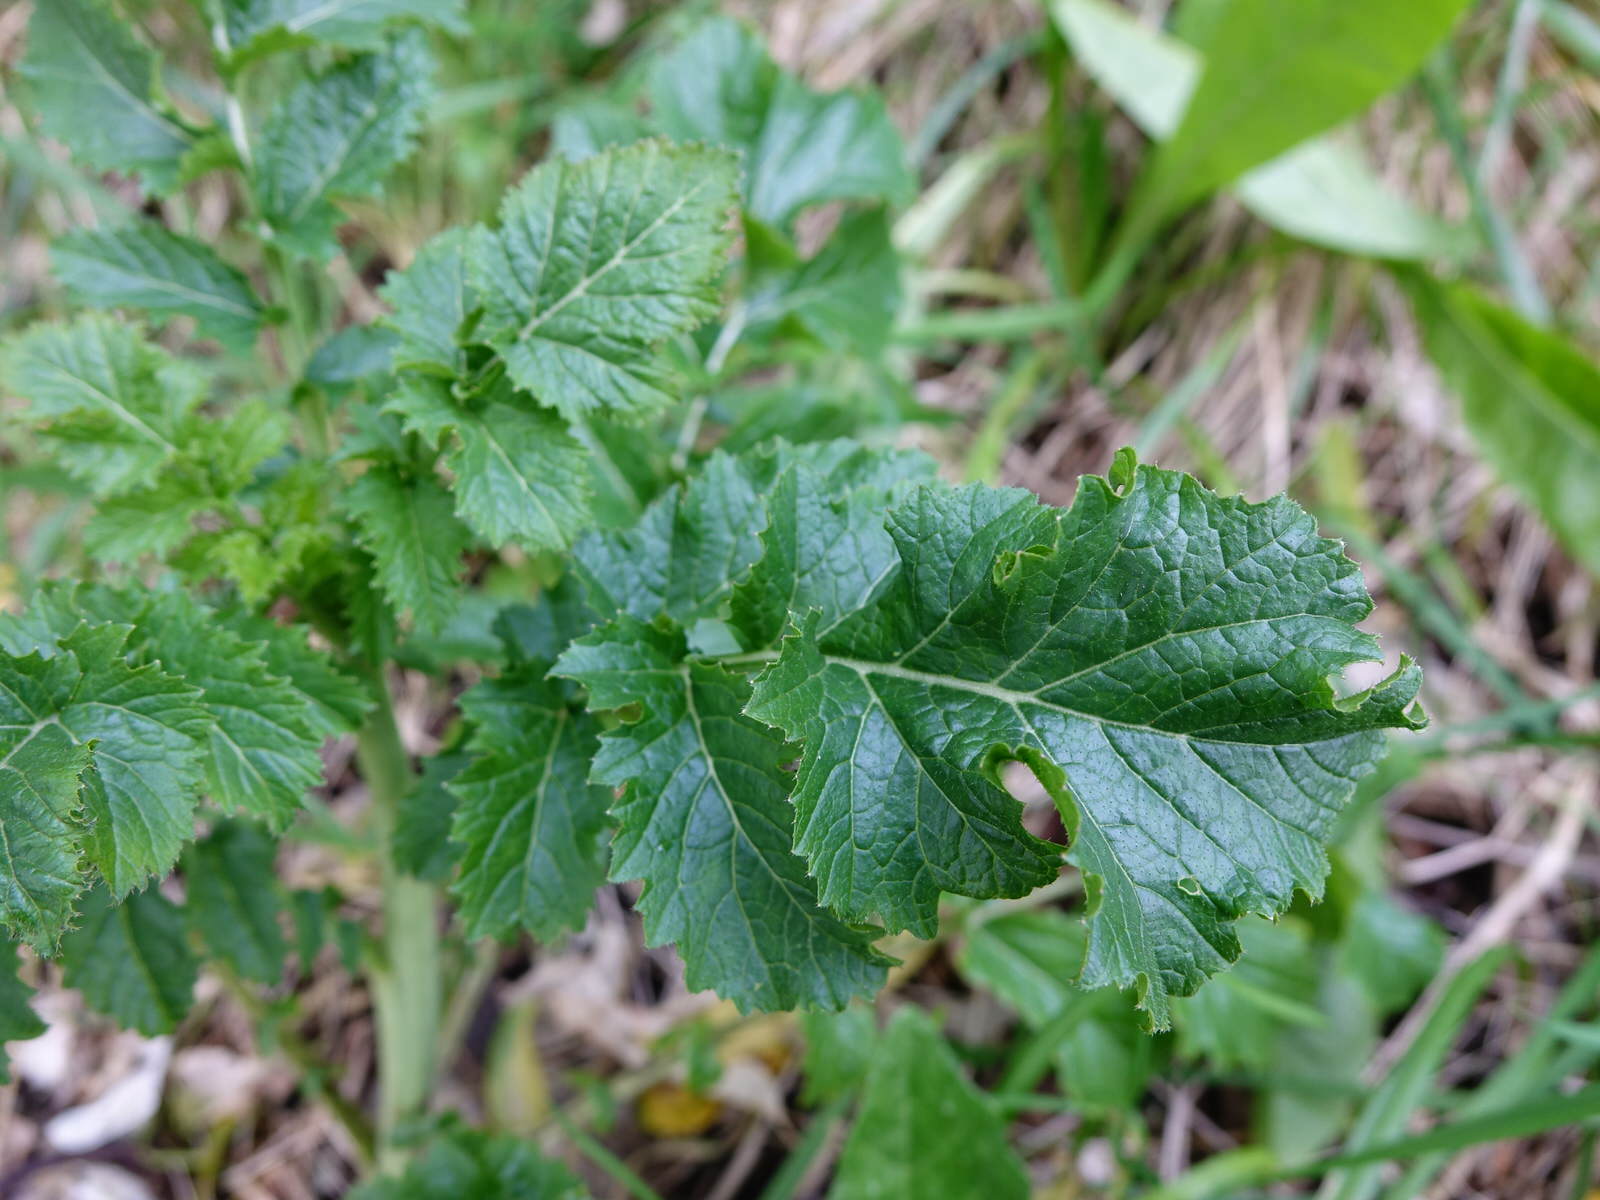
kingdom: Plantae
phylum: Tracheophyta
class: Magnoliopsida
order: Brassicales
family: Brassicaceae
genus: Raphanus
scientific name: Raphanus raphanistrum
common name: Wild radish
